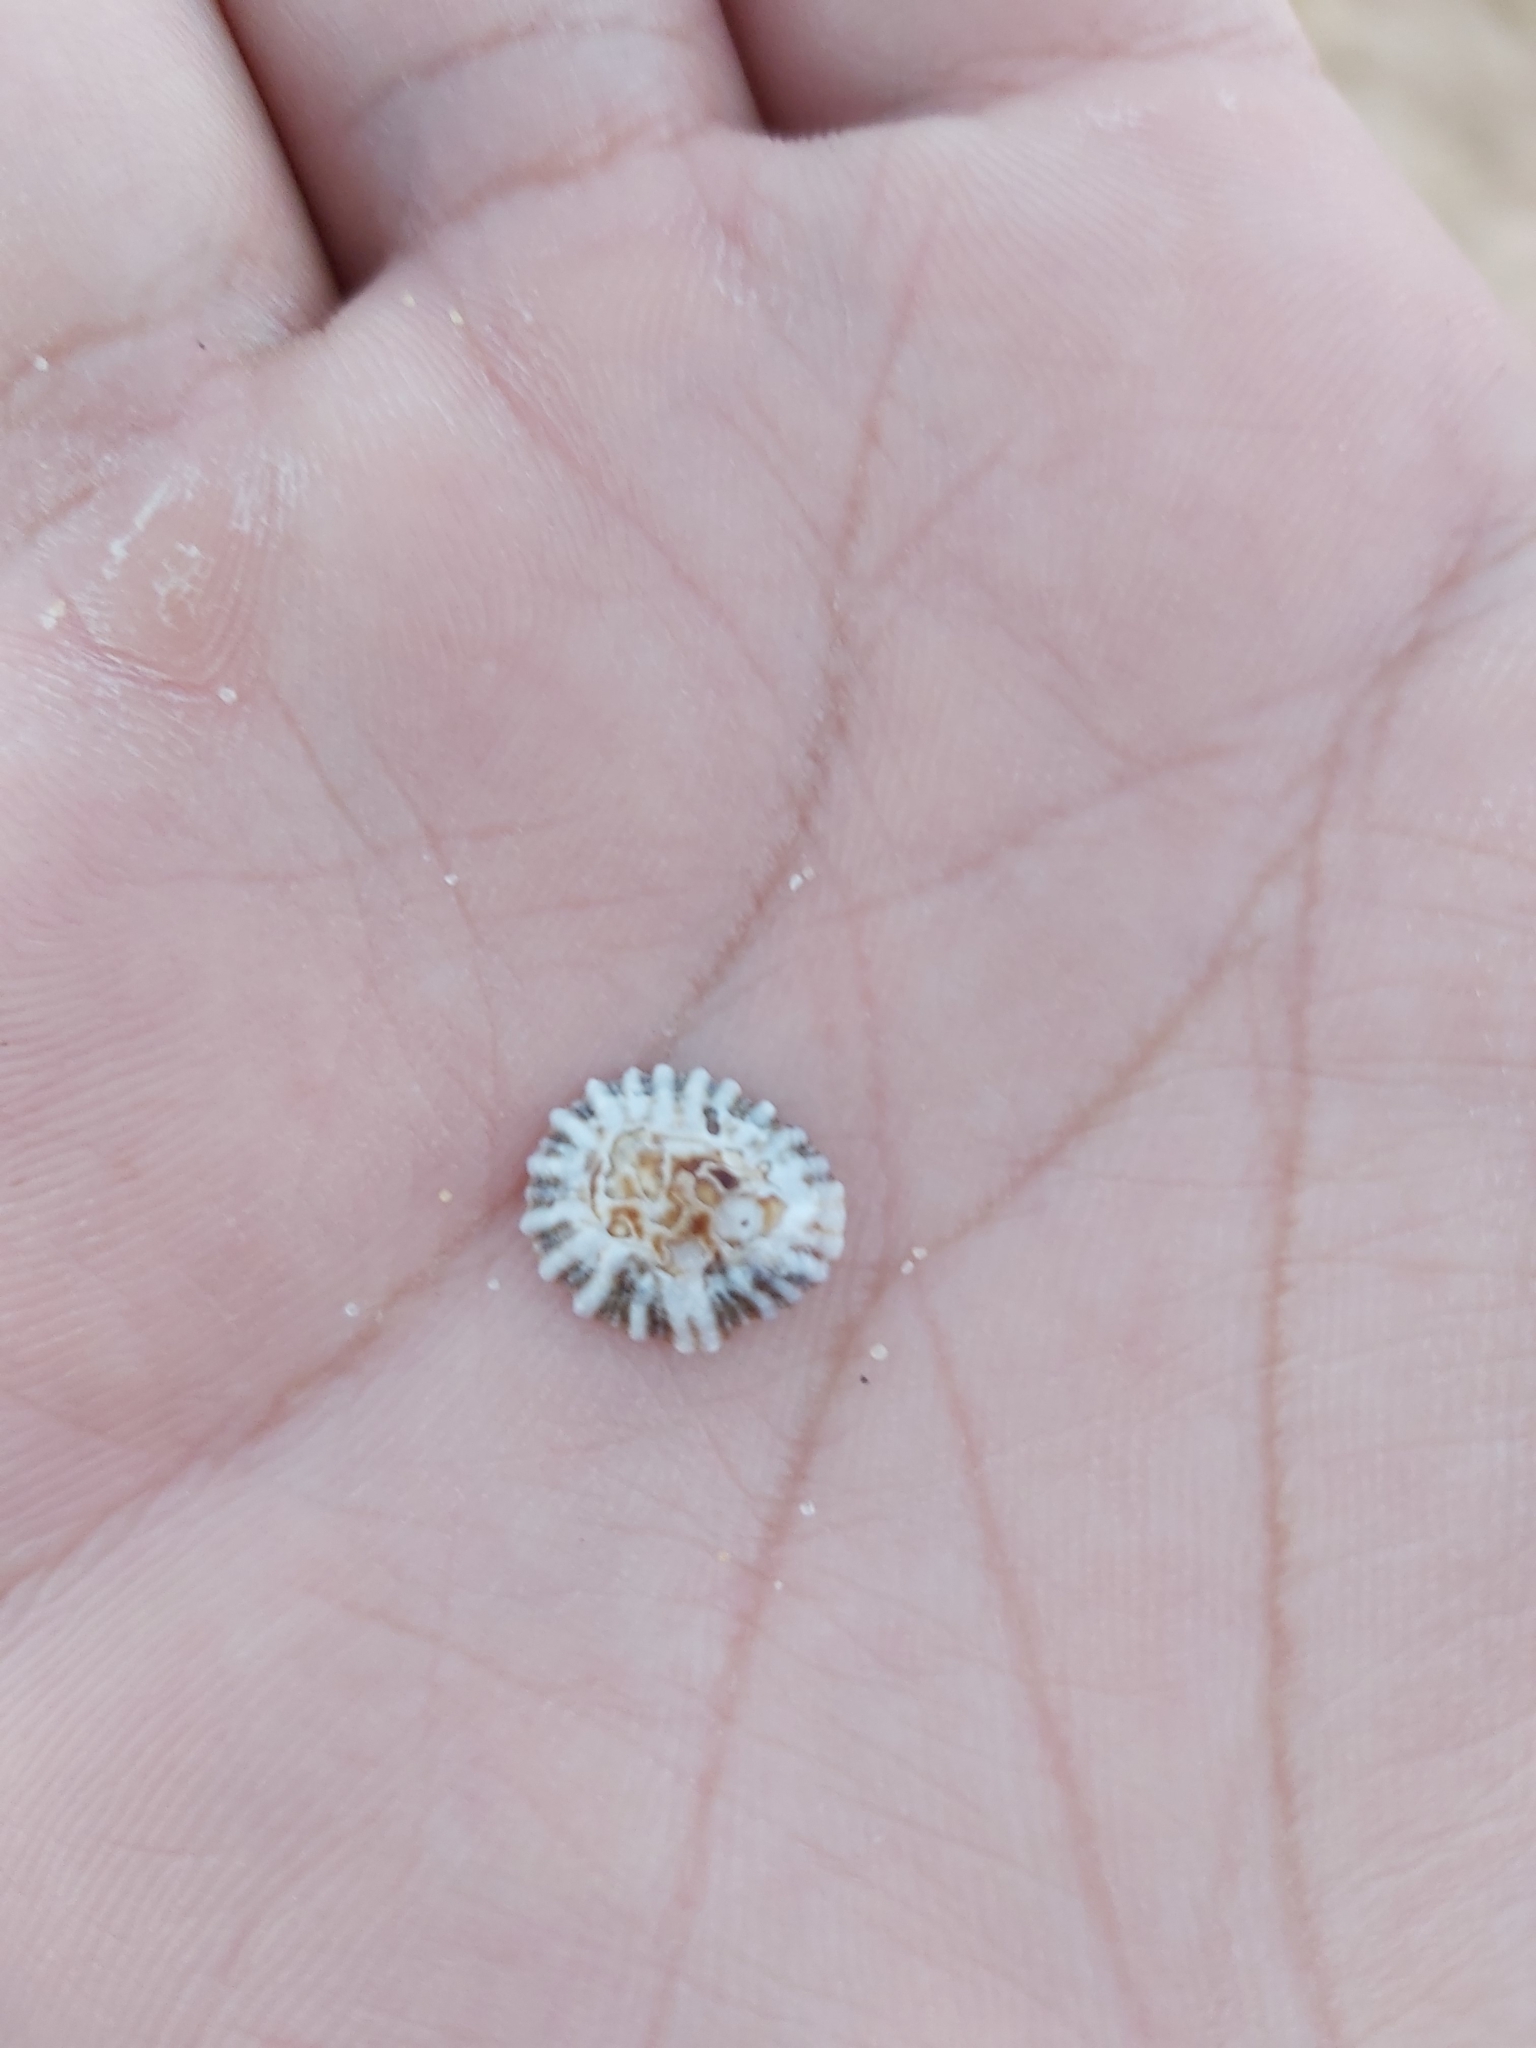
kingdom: Animalia
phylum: Mollusca
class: Gastropoda
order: Siphonariida
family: Siphonariidae
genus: Siphonaria
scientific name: Siphonaria denticulata
